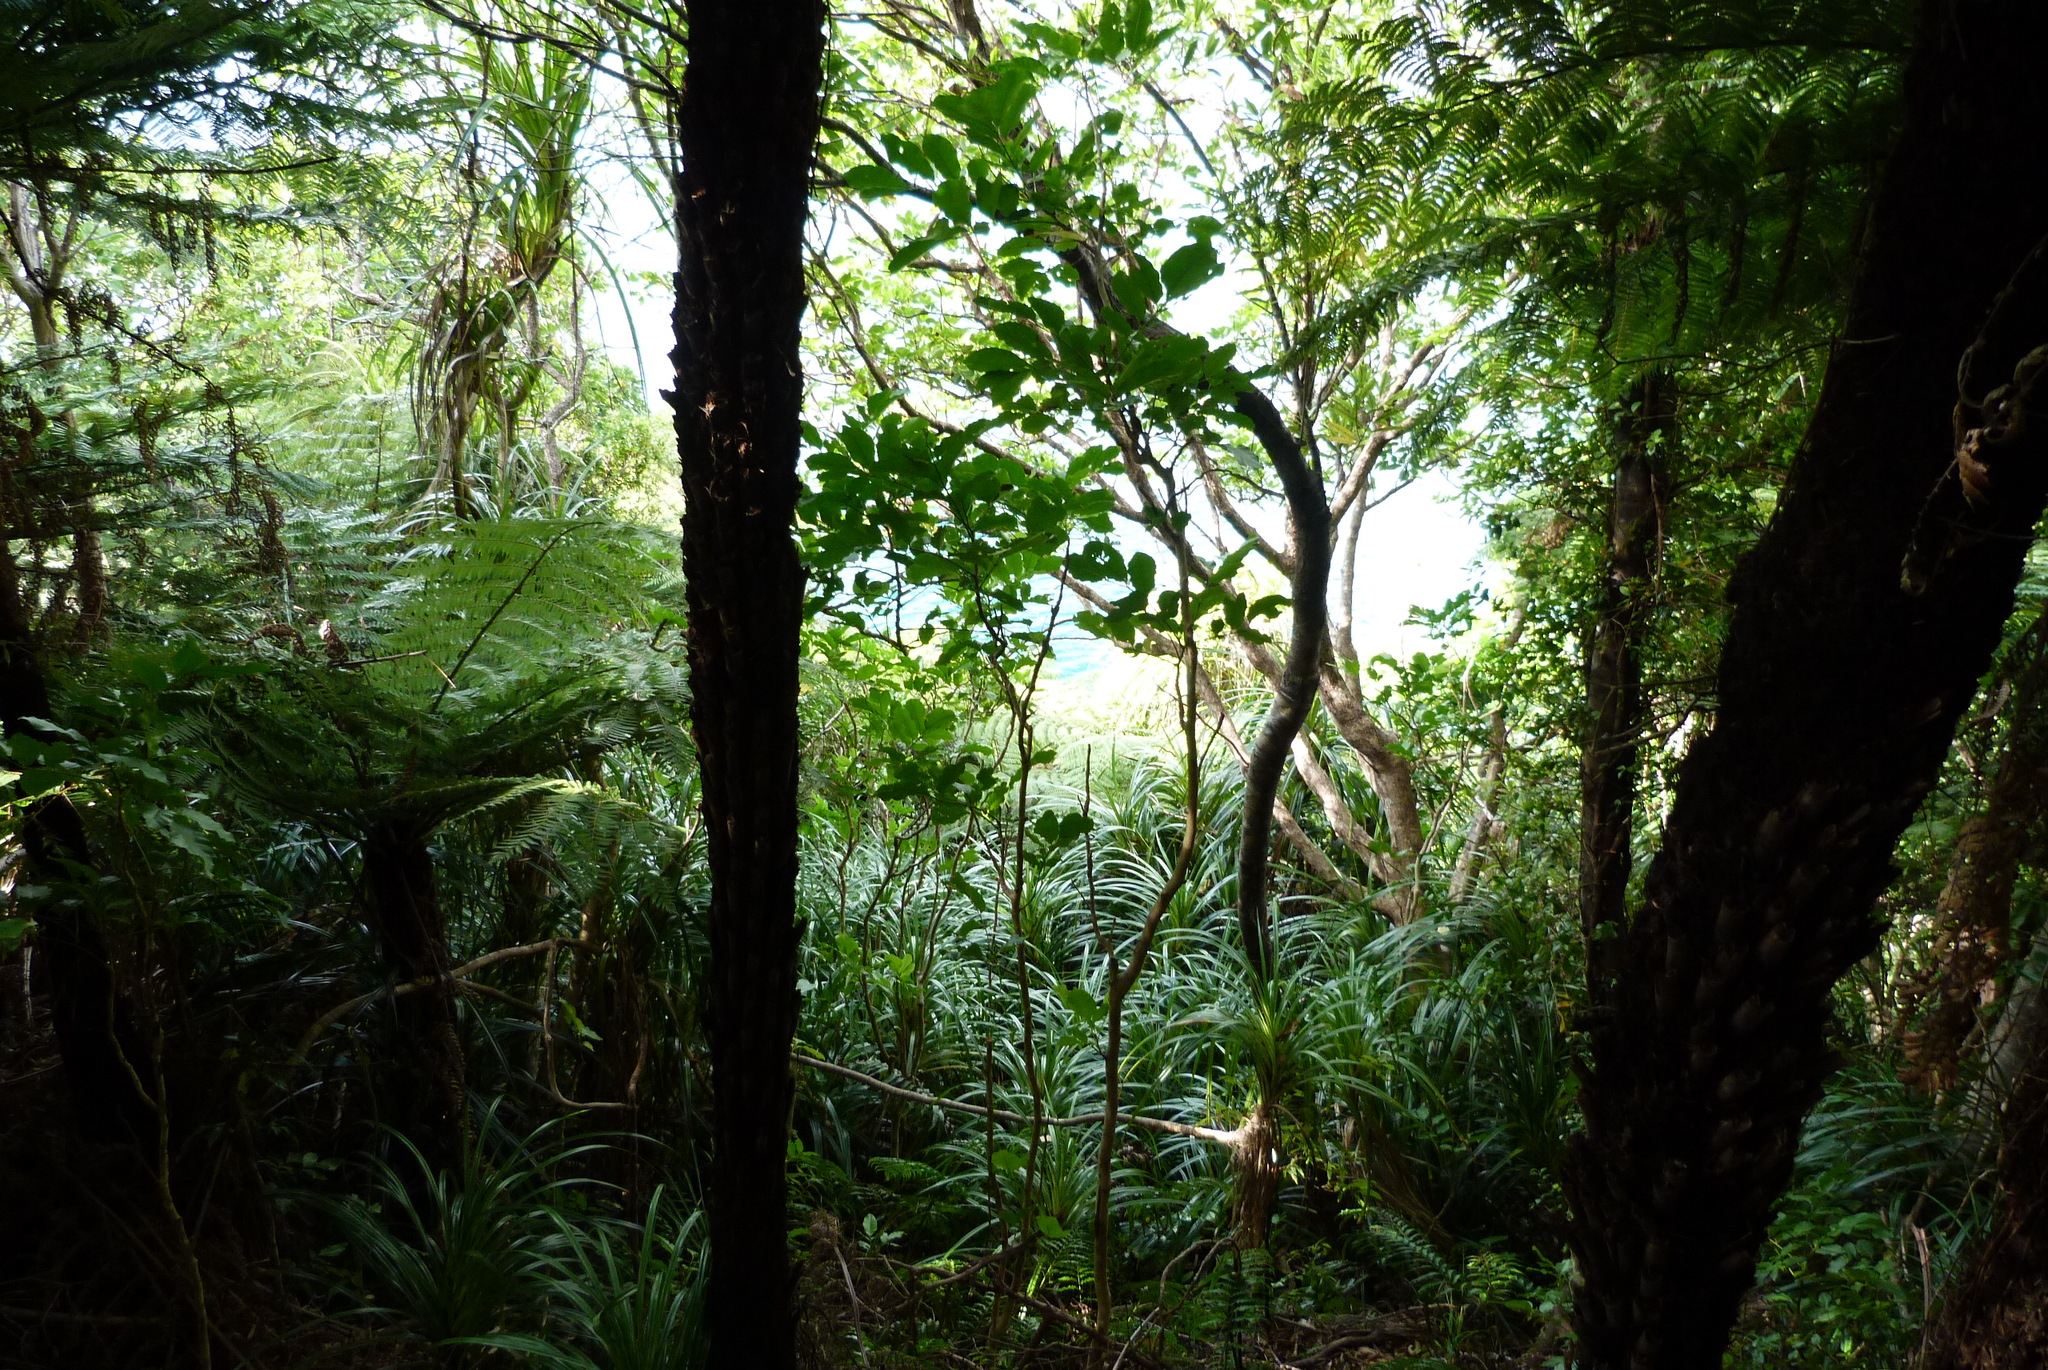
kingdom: Plantae
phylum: Tracheophyta
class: Liliopsida
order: Pandanales
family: Pandanaceae
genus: Freycinetia
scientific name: Freycinetia banksii
